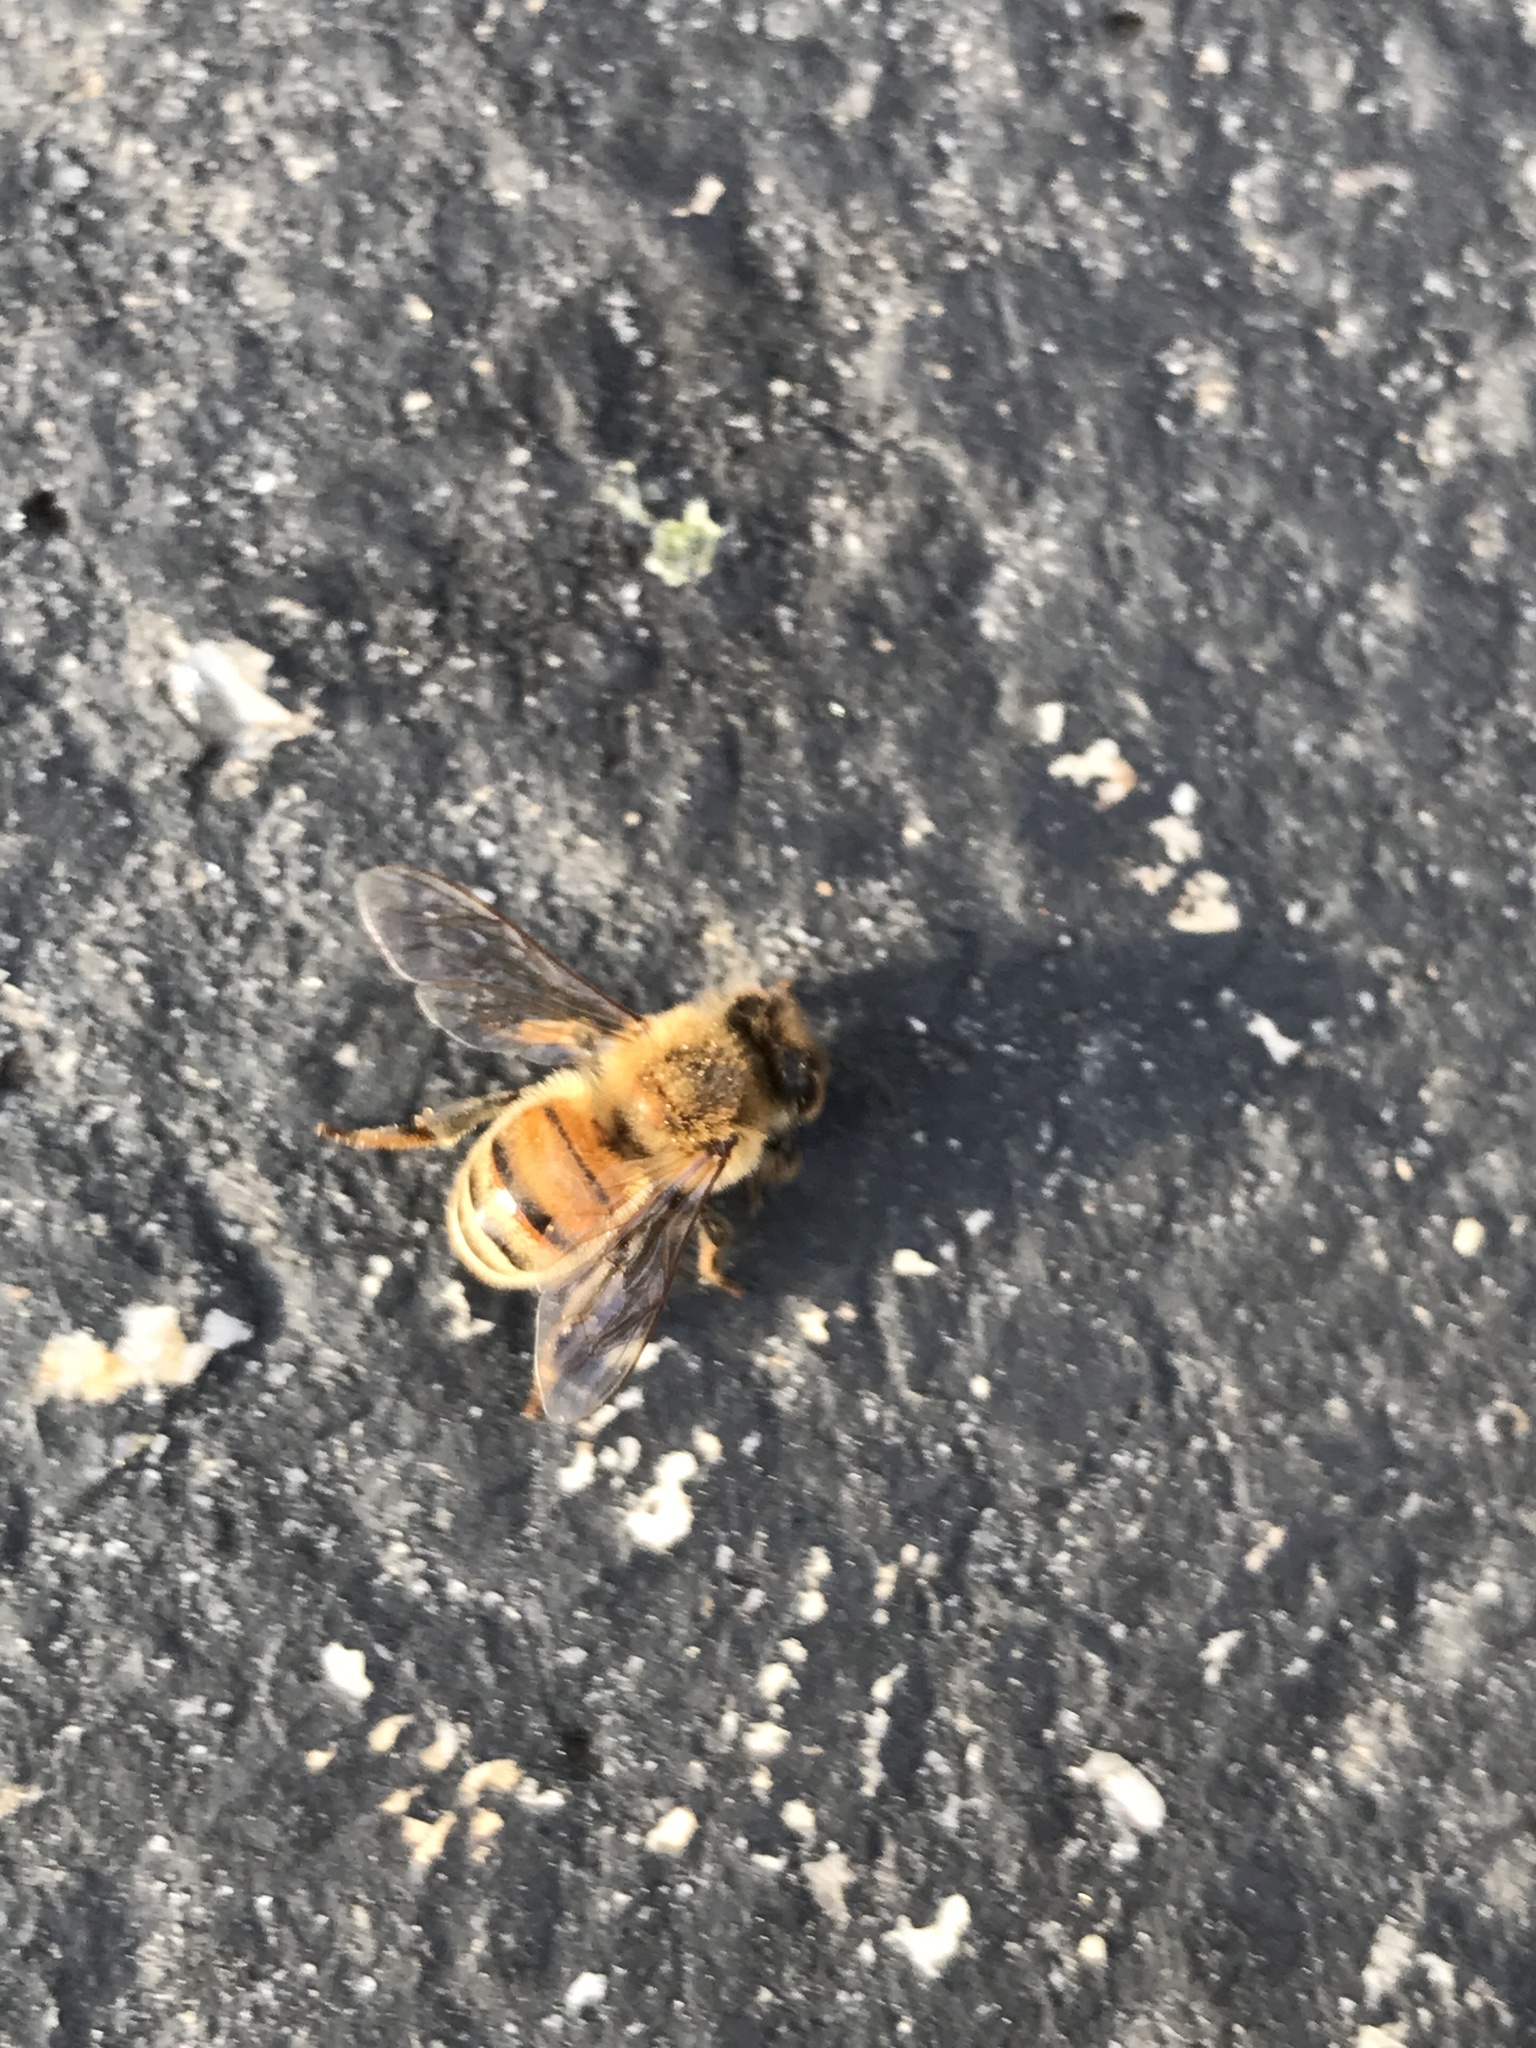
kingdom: Animalia
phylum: Arthropoda
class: Insecta
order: Hymenoptera
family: Apidae
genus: Apis
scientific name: Apis mellifera
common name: Honey bee
